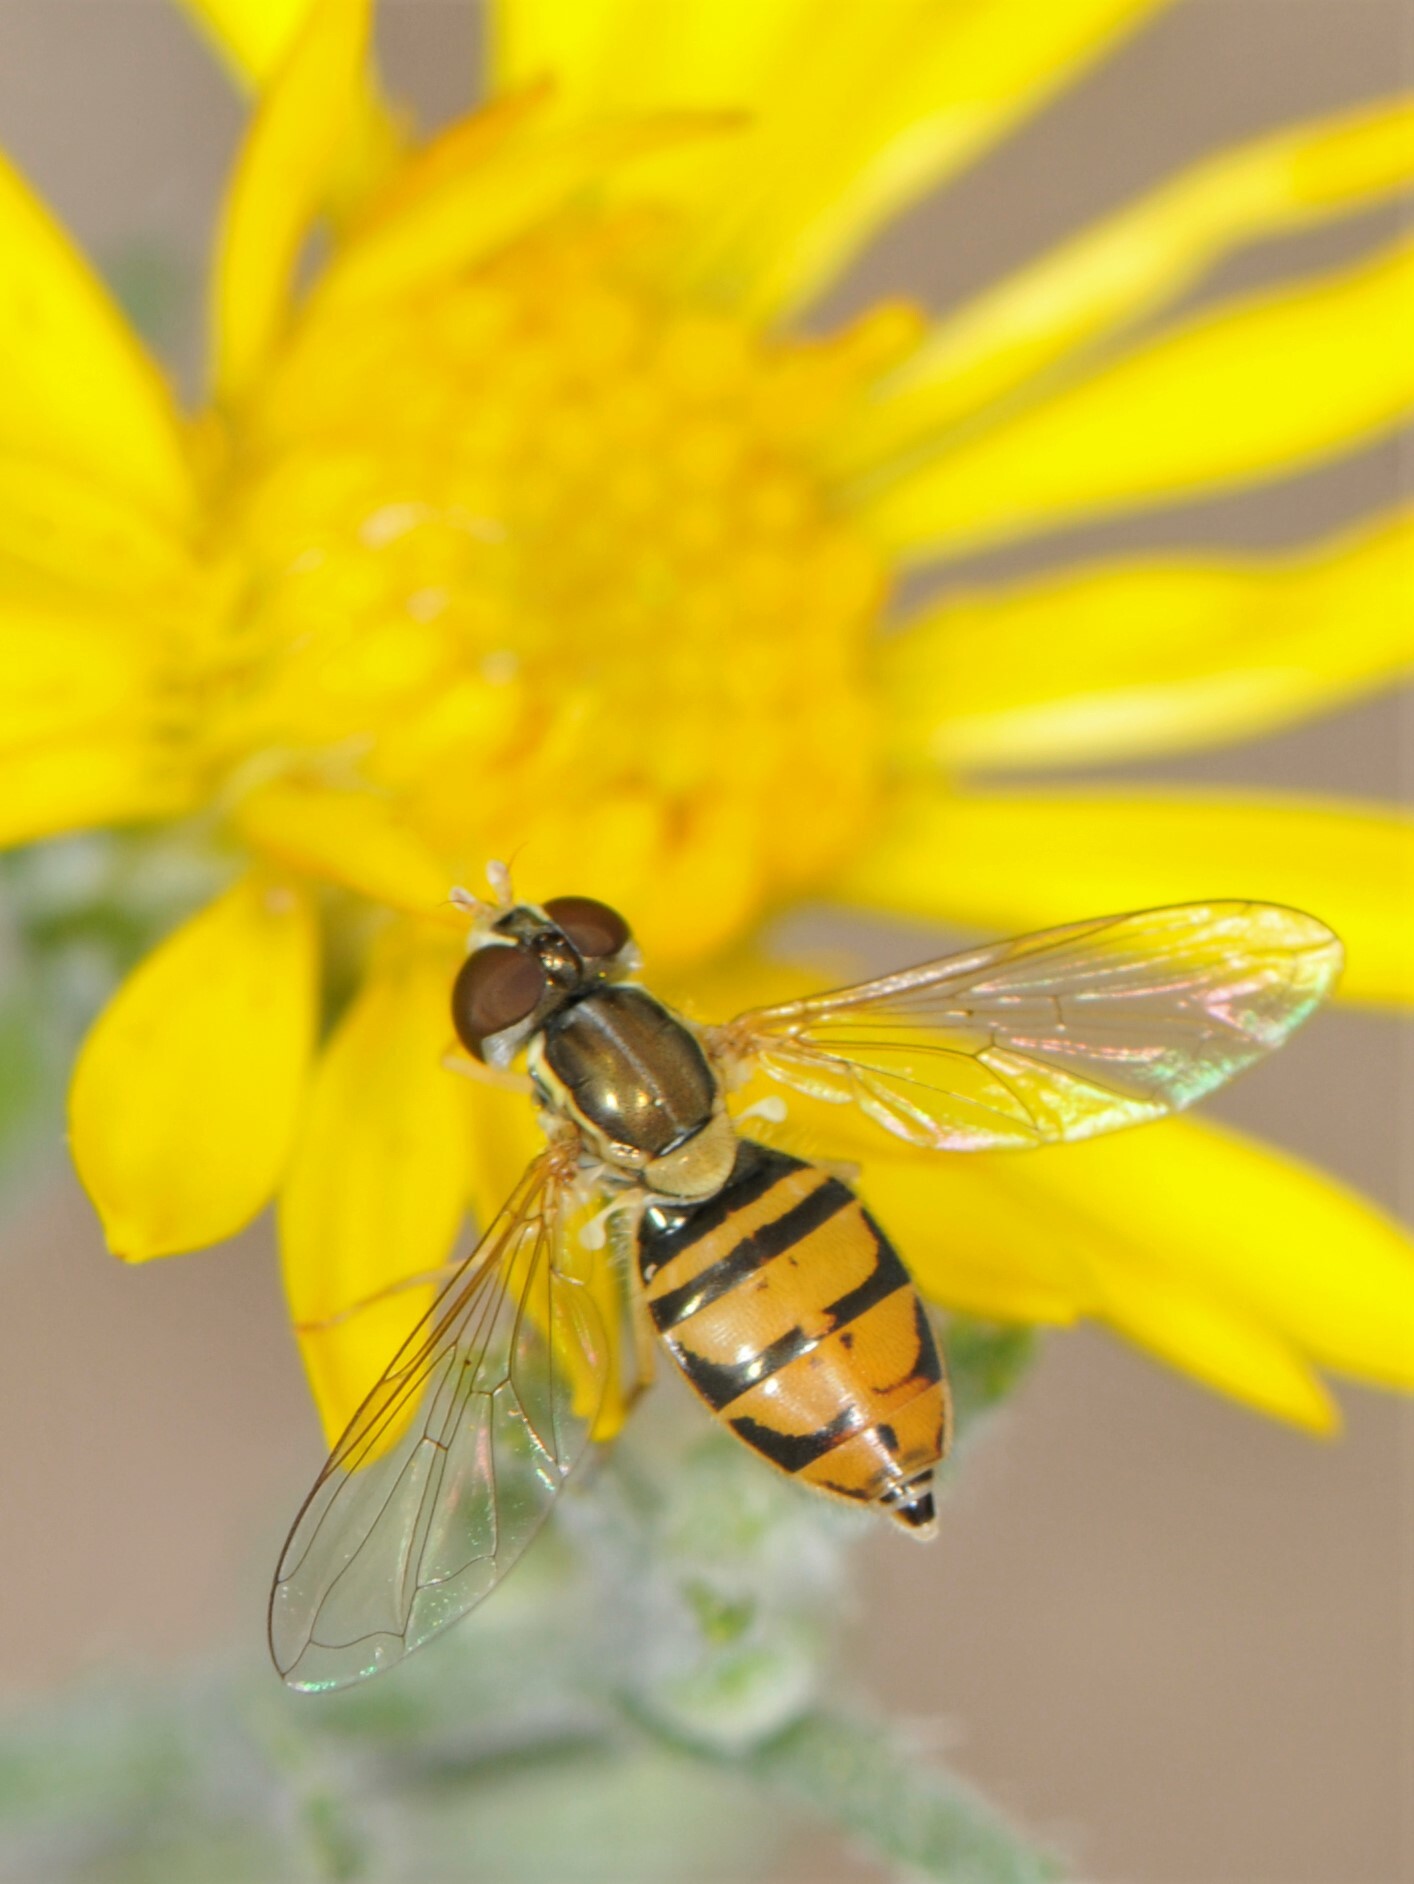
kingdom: Animalia
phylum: Arthropoda
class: Insecta
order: Diptera
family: Syrphidae
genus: Toxomerus
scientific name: Toxomerus marginatus
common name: Syrphid fly
